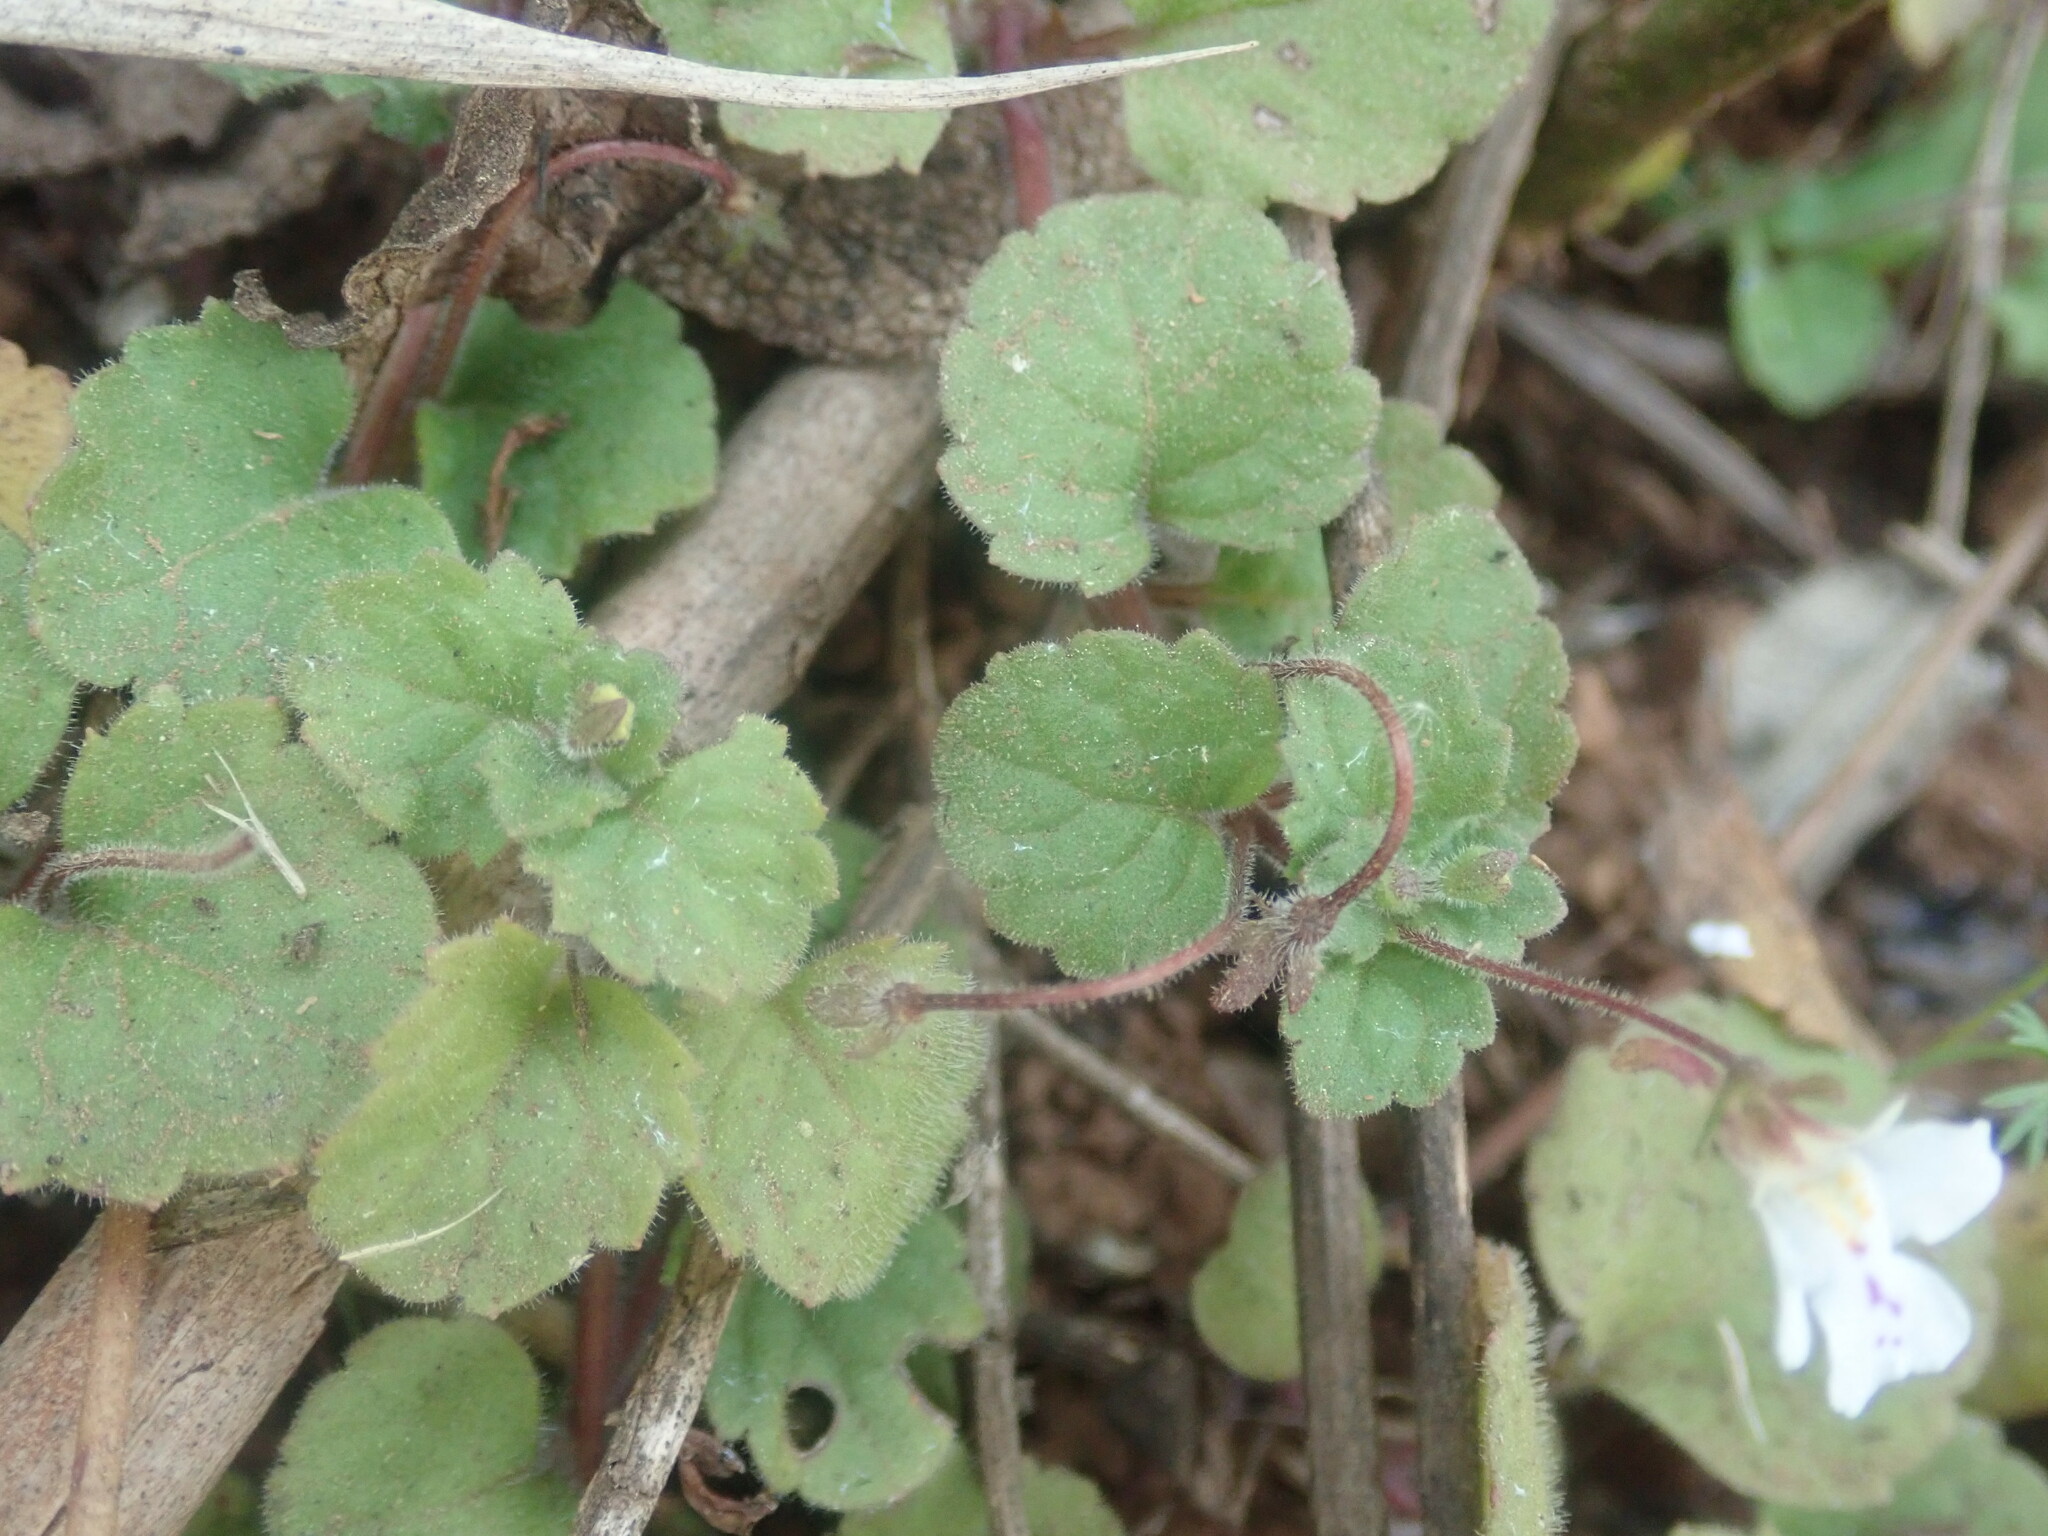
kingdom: Plantae
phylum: Tracheophyta
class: Magnoliopsida
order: Lamiales
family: Scrophulariaceae
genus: Diclis
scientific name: Diclis reptans
